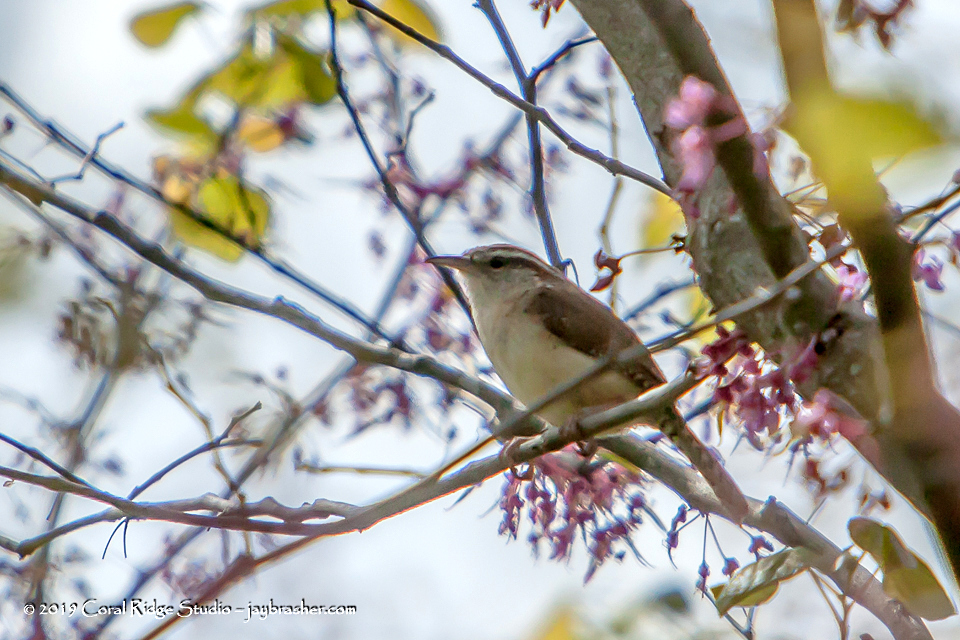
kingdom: Animalia
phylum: Chordata
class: Aves
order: Passeriformes
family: Troglodytidae
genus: Thryothorus
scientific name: Thryothorus ludovicianus
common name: Carolina wren
